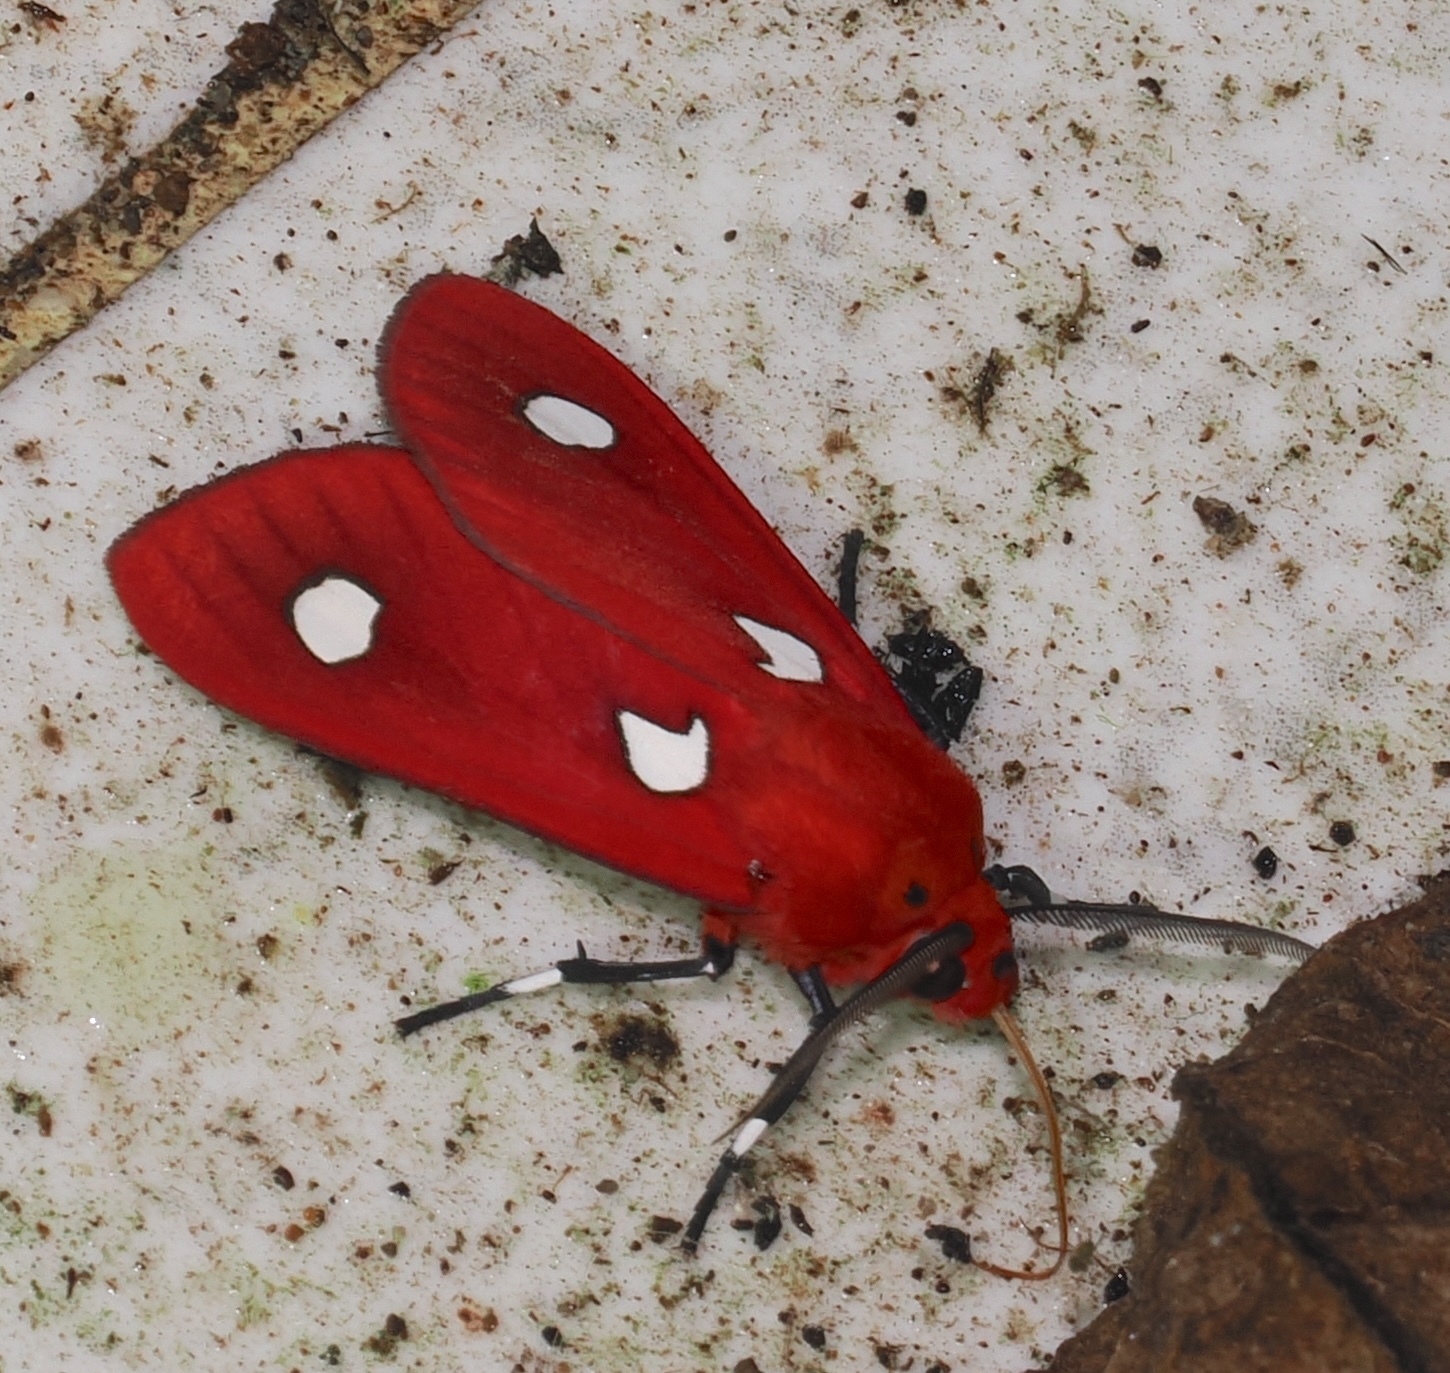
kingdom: Animalia
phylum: Arthropoda
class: Insecta
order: Lepidoptera
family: Erebidae
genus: Hyperthaema
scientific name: Hyperthaema sanguineata
